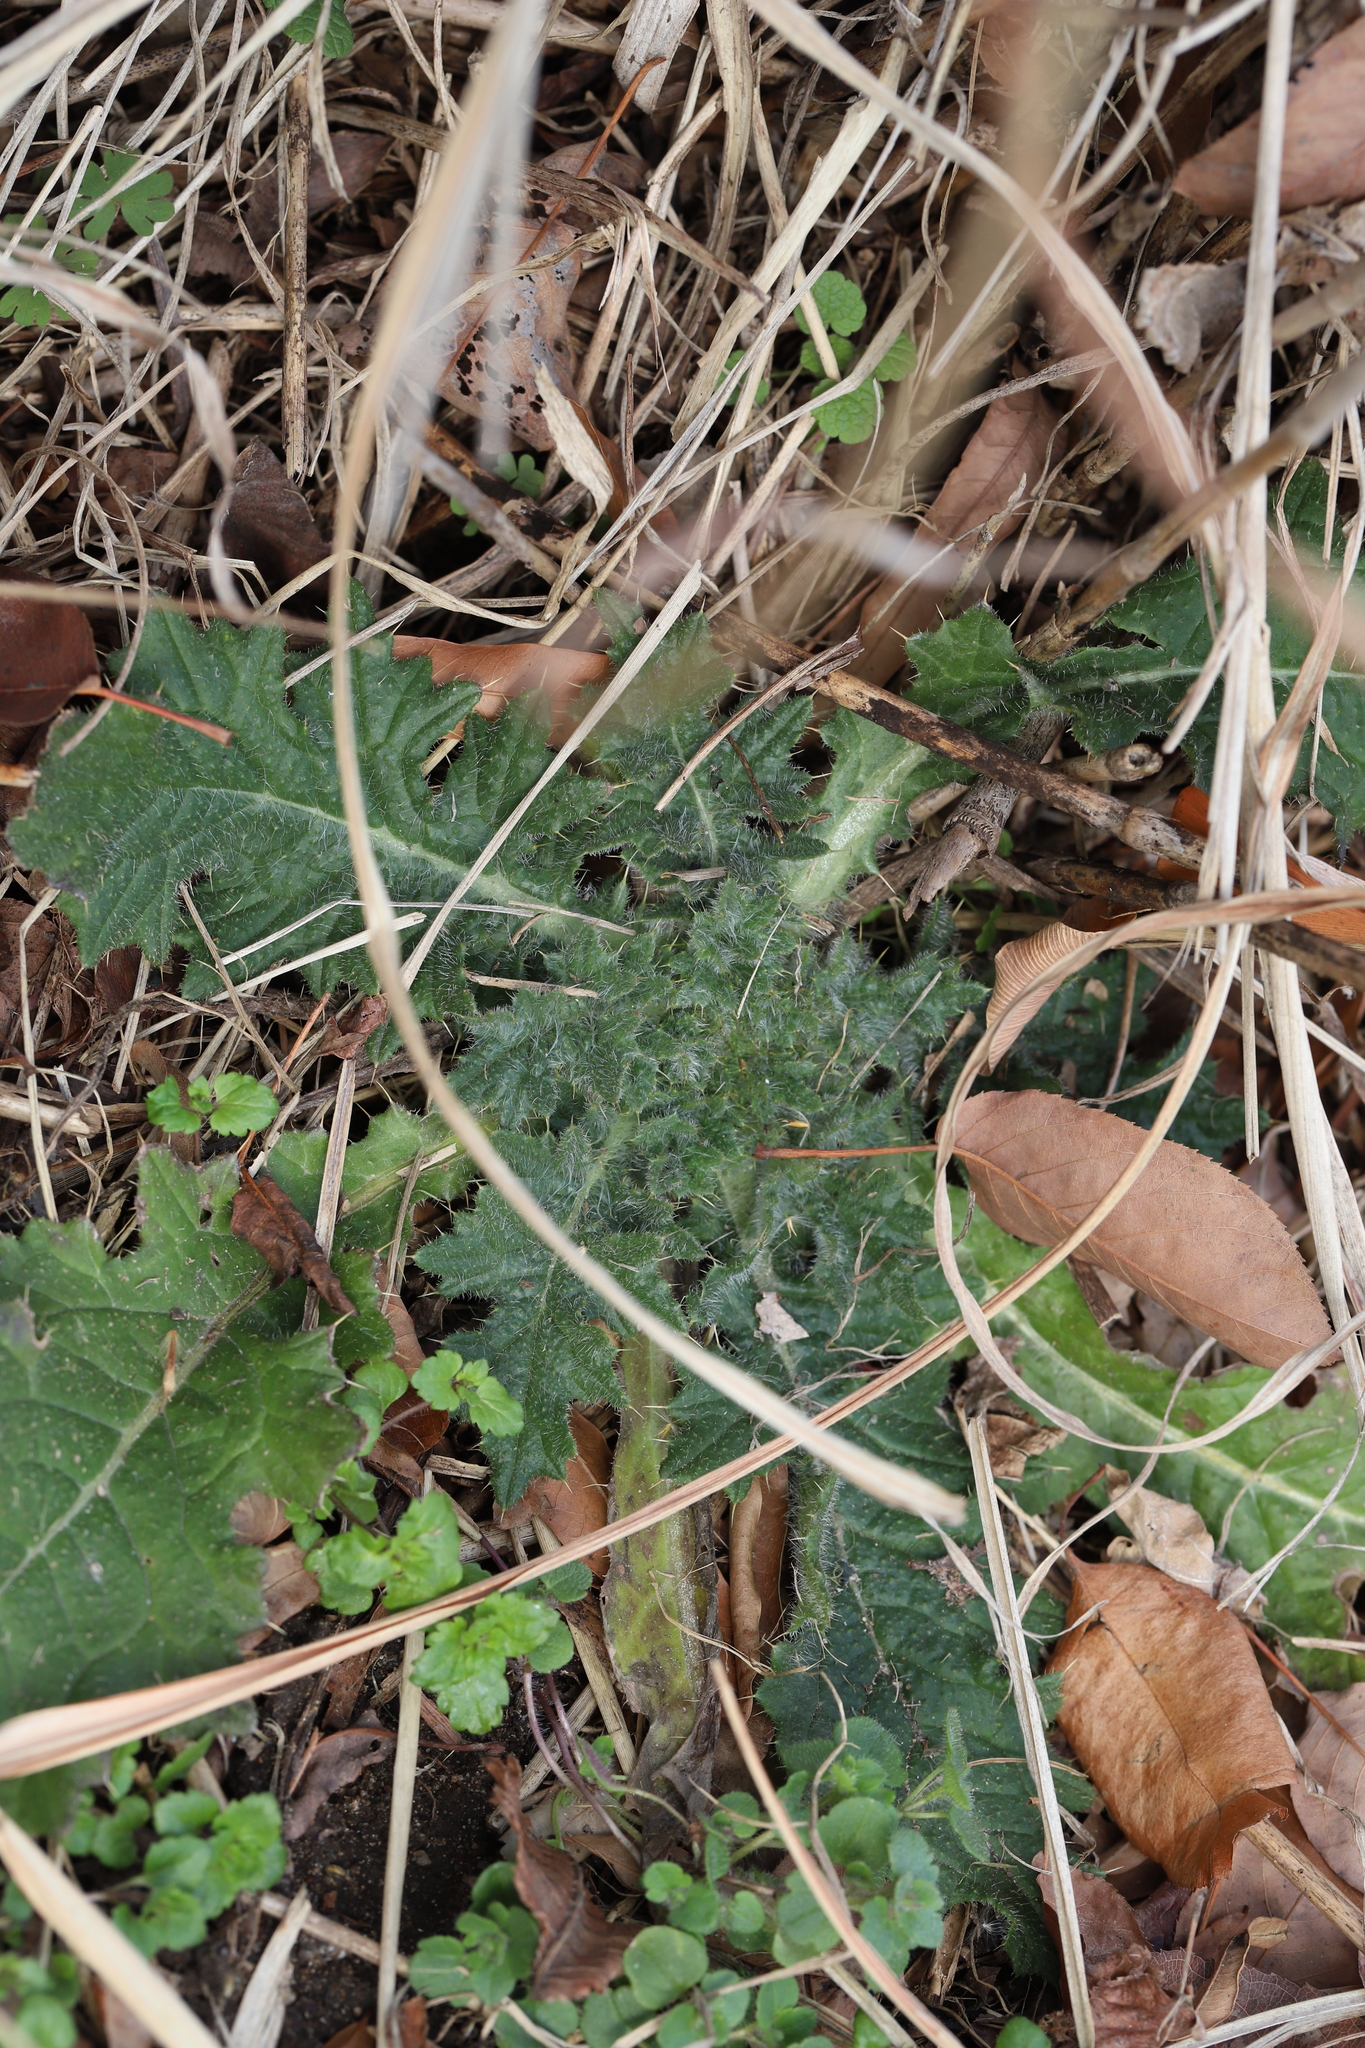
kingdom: Plantae
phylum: Tracheophyta
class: Magnoliopsida
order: Asterales
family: Asteraceae
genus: Cirsium
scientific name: Cirsium vulgare
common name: Bull thistle
